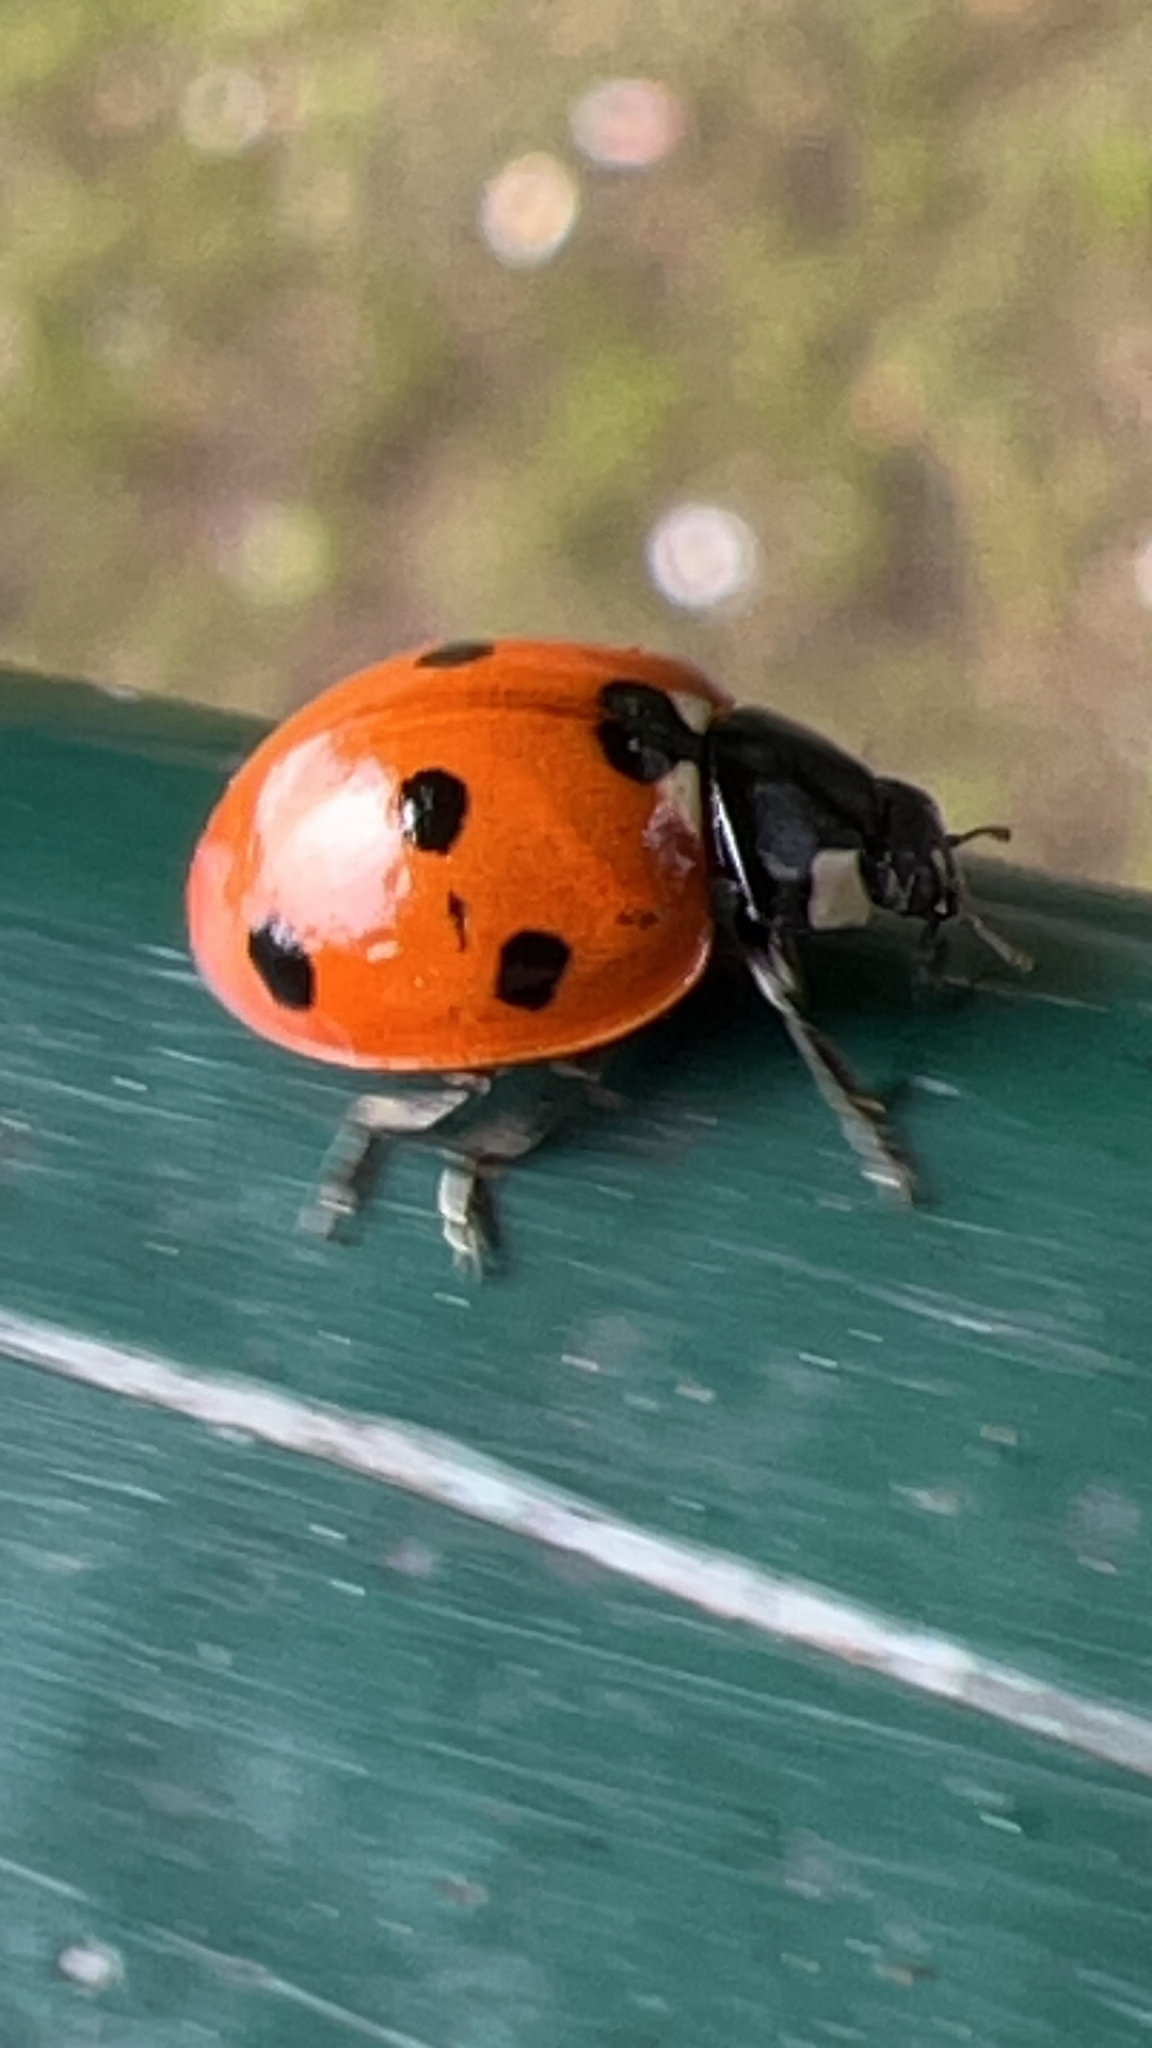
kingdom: Animalia
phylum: Arthropoda
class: Insecta
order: Coleoptera
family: Coccinellidae
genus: Coccinella
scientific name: Coccinella septempunctata
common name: Sevenspotted lady beetle
